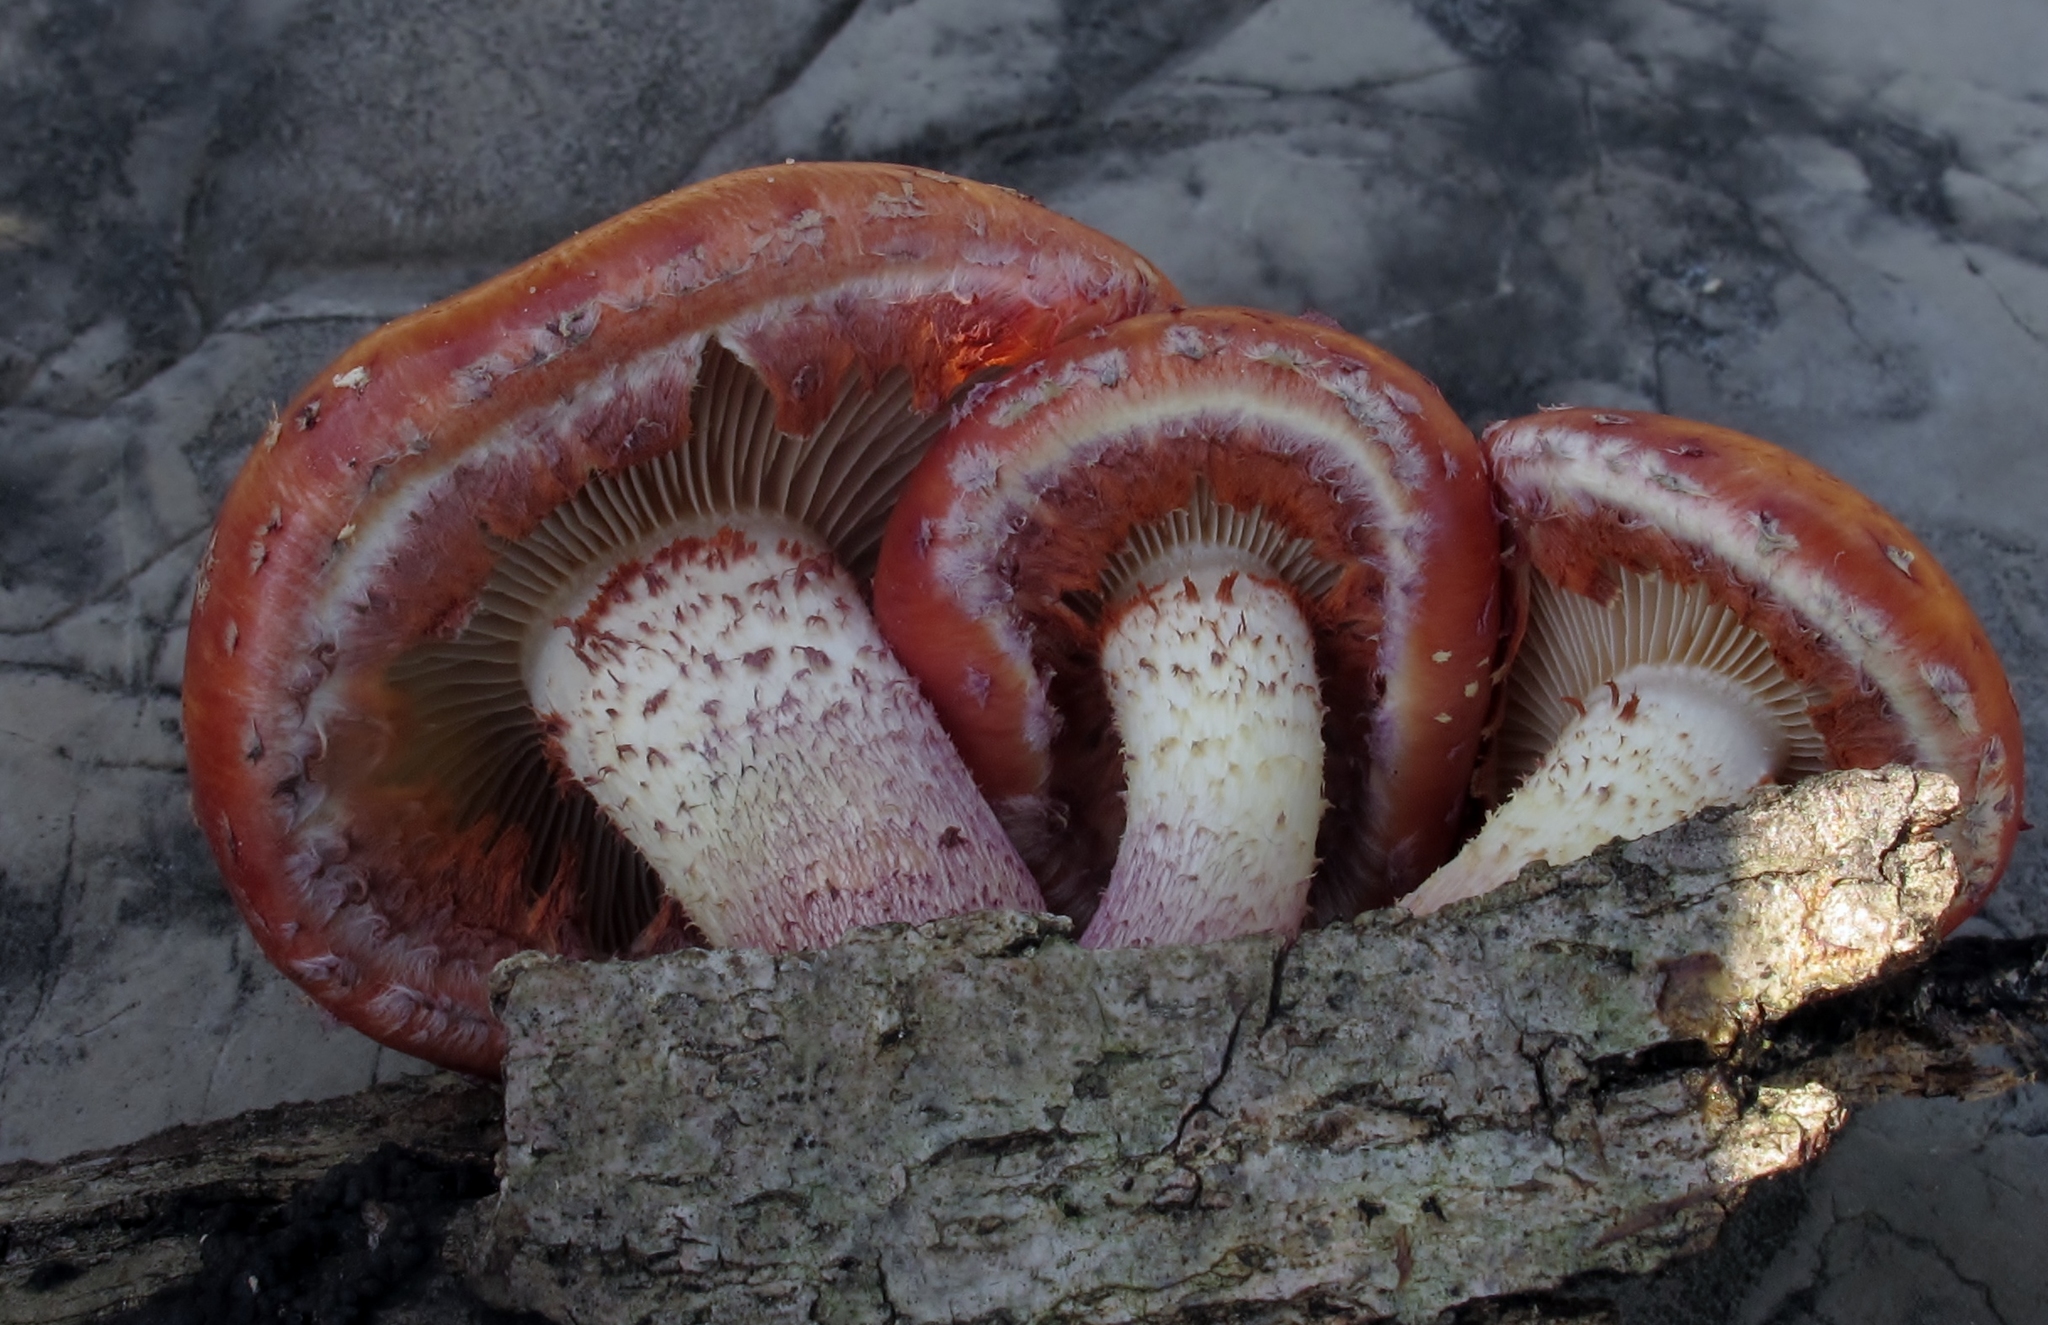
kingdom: Fungi
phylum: Basidiomycota
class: Agaricomycetes
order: Agaricales
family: Strophariaceae
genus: Pholiota
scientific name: Pholiota polychroa
